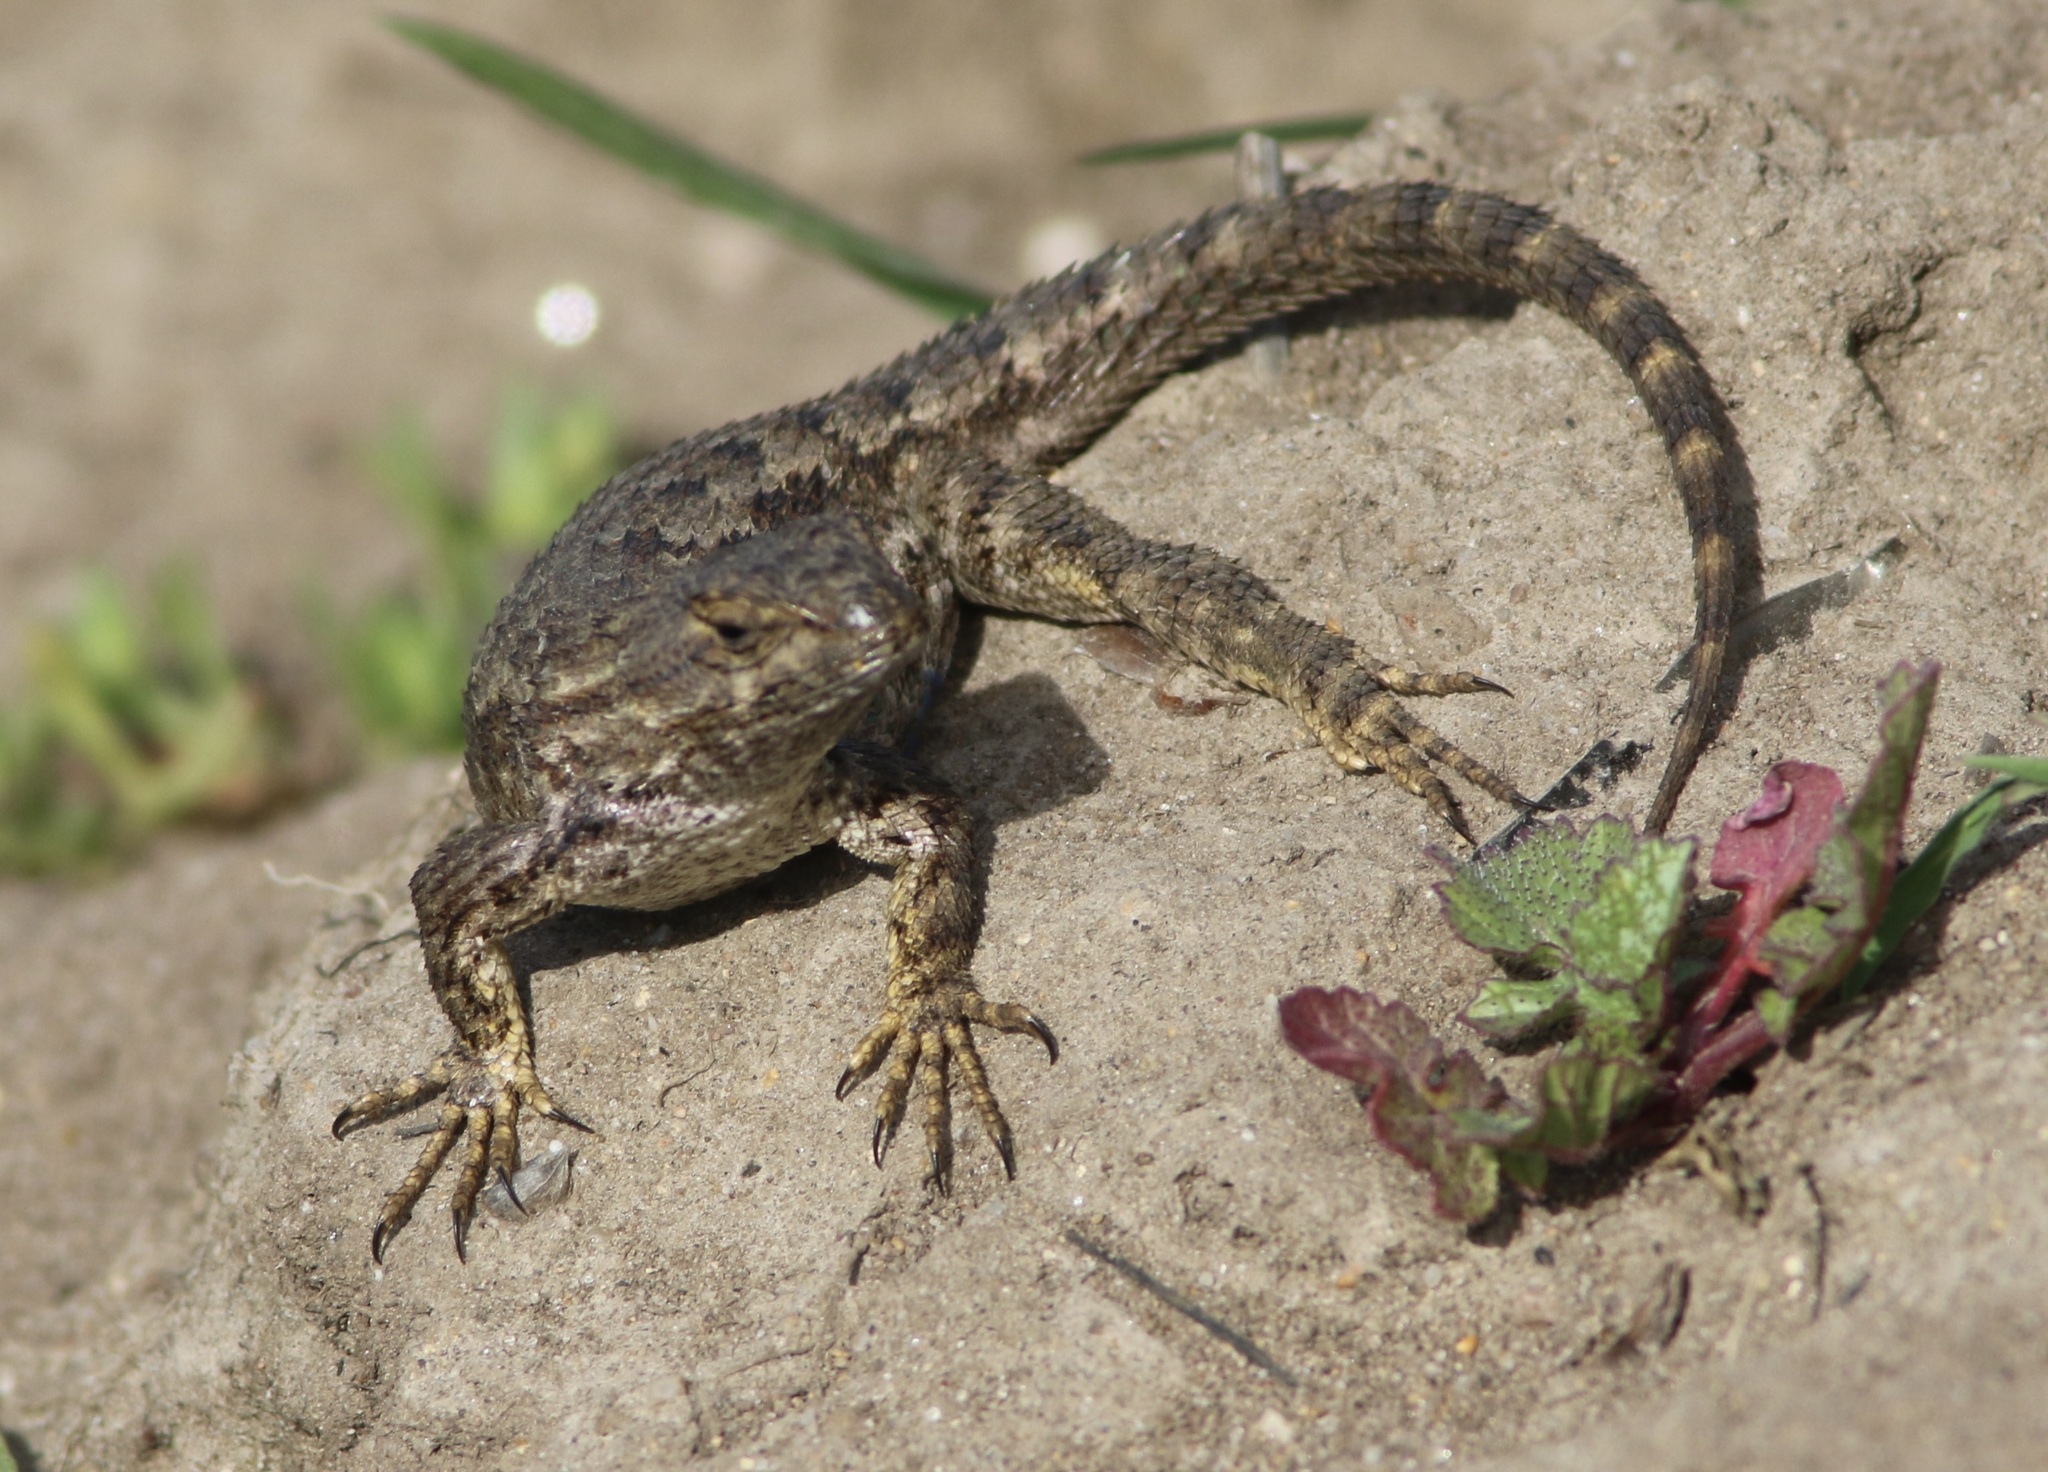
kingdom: Animalia
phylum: Chordata
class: Squamata
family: Phrynosomatidae
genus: Sceloporus
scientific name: Sceloporus occidentalis
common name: Western fence lizard
